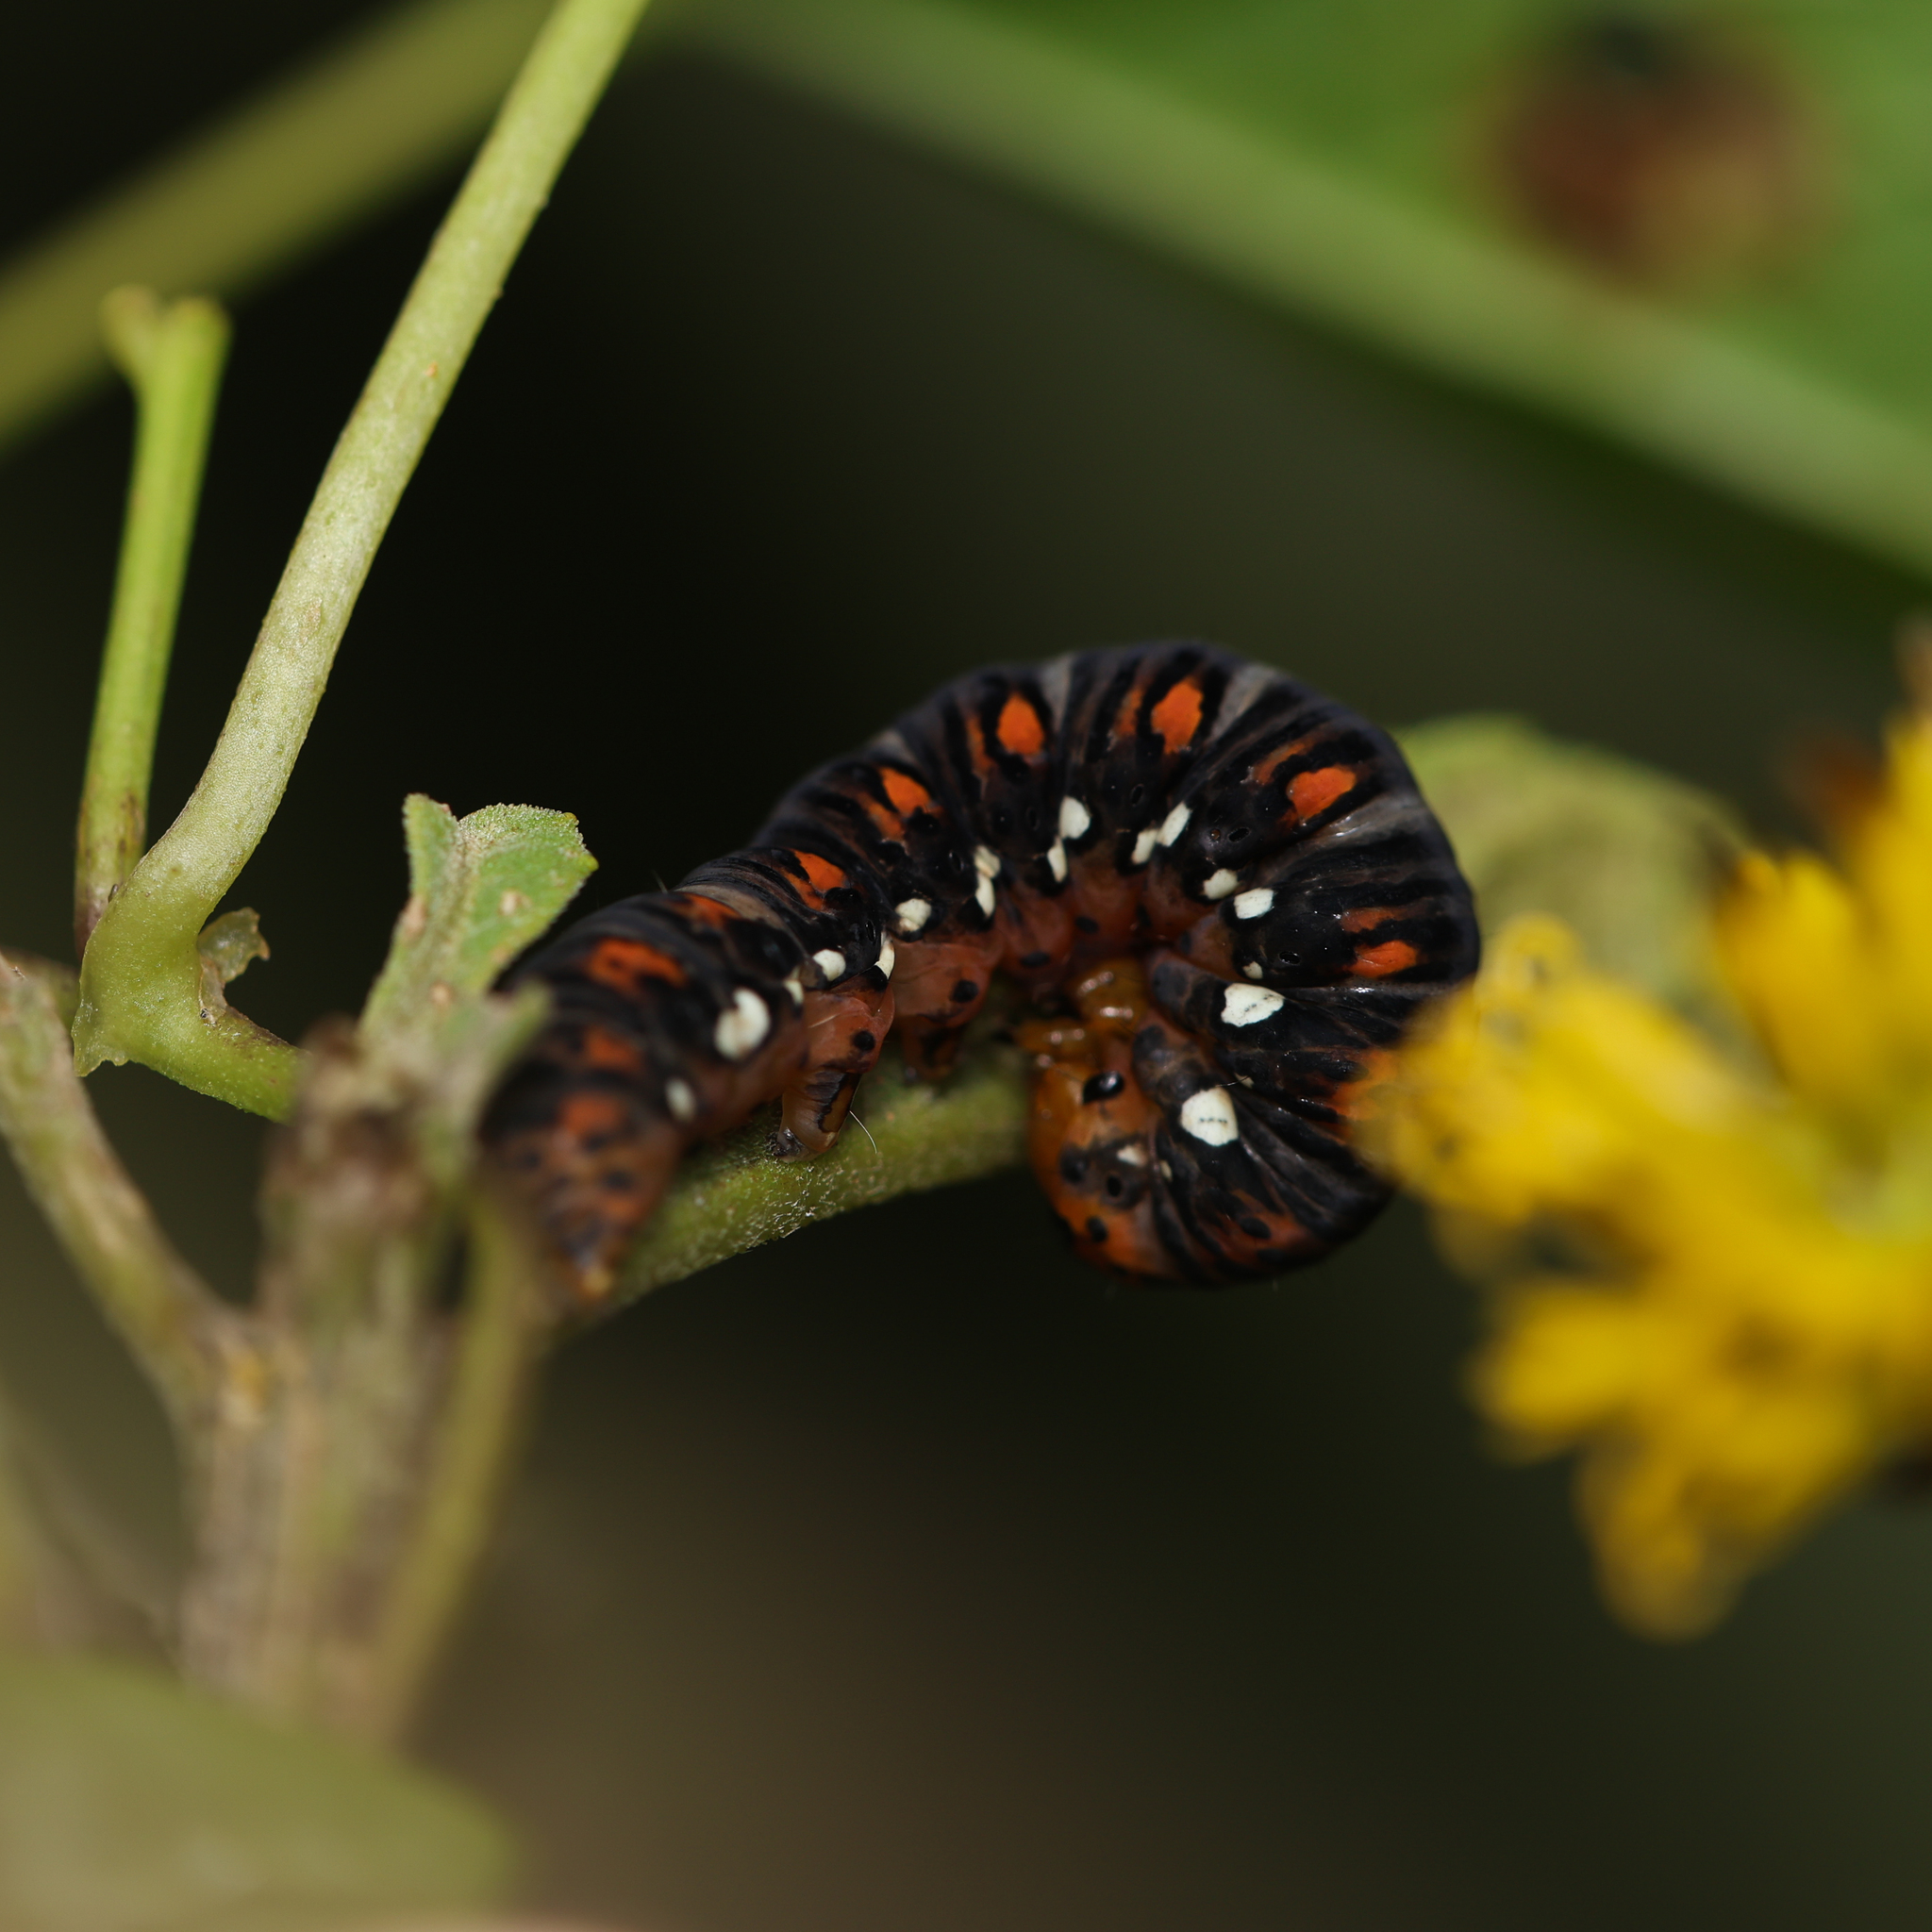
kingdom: Animalia
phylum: Arthropoda
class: Insecta
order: Lepidoptera
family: Noctuidae
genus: Basilodes
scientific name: Basilodes pepita
